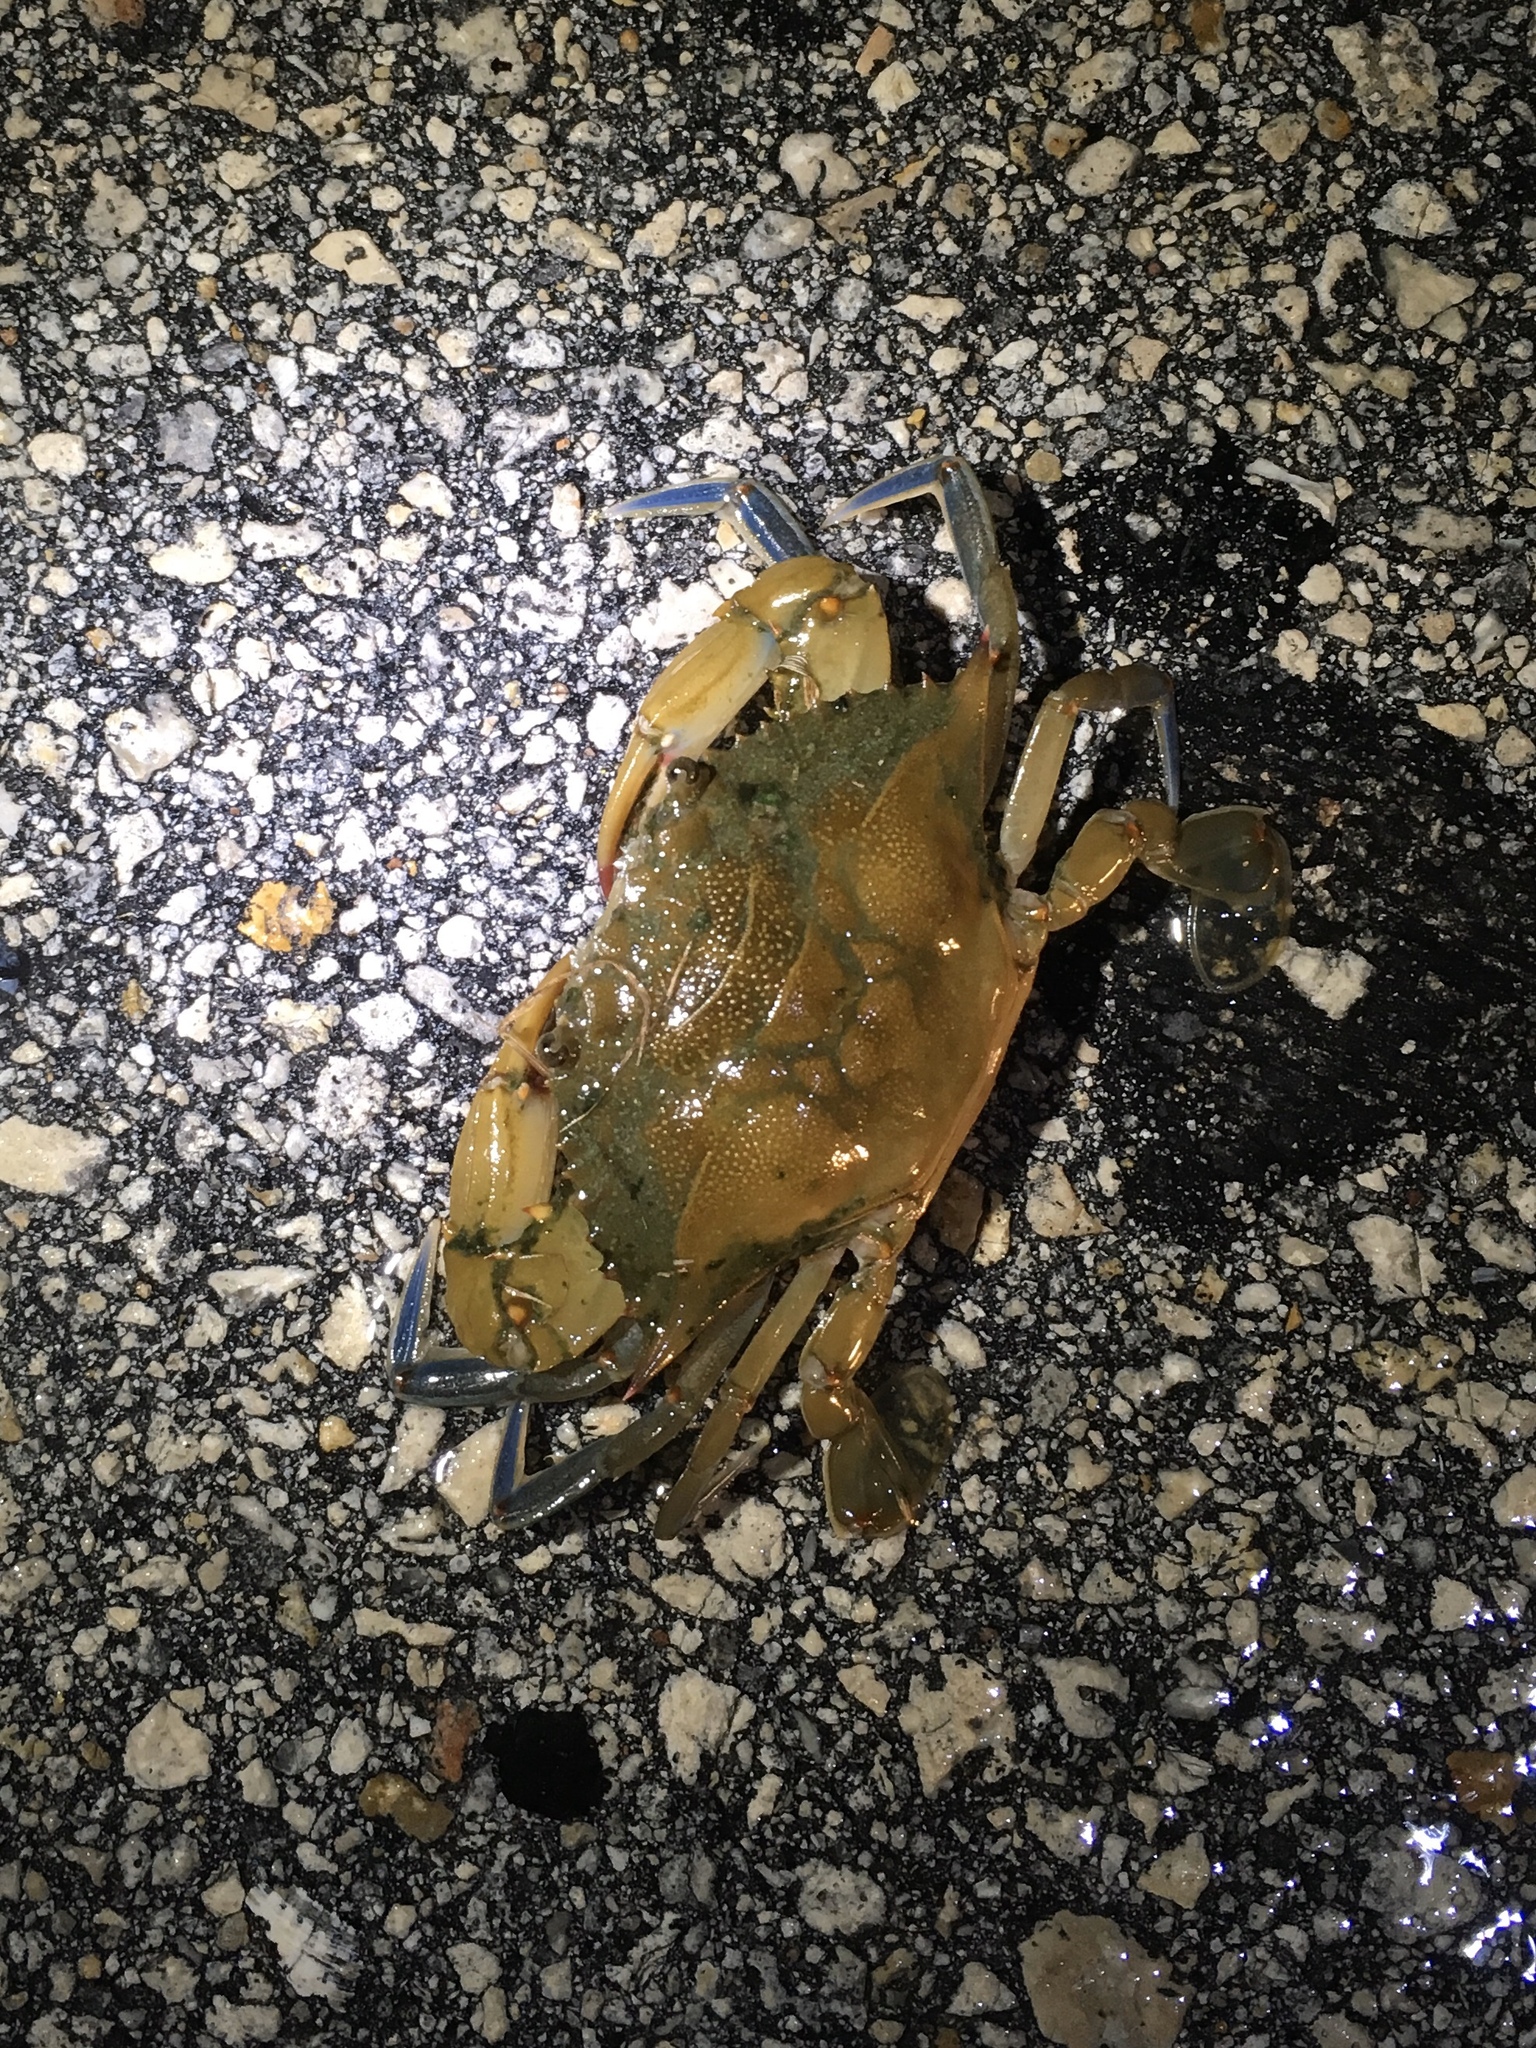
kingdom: Animalia
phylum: Arthropoda
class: Malacostraca
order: Decapoda
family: Portunidae
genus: Callinectes
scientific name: Callinectes sapidus
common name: Blue crab
